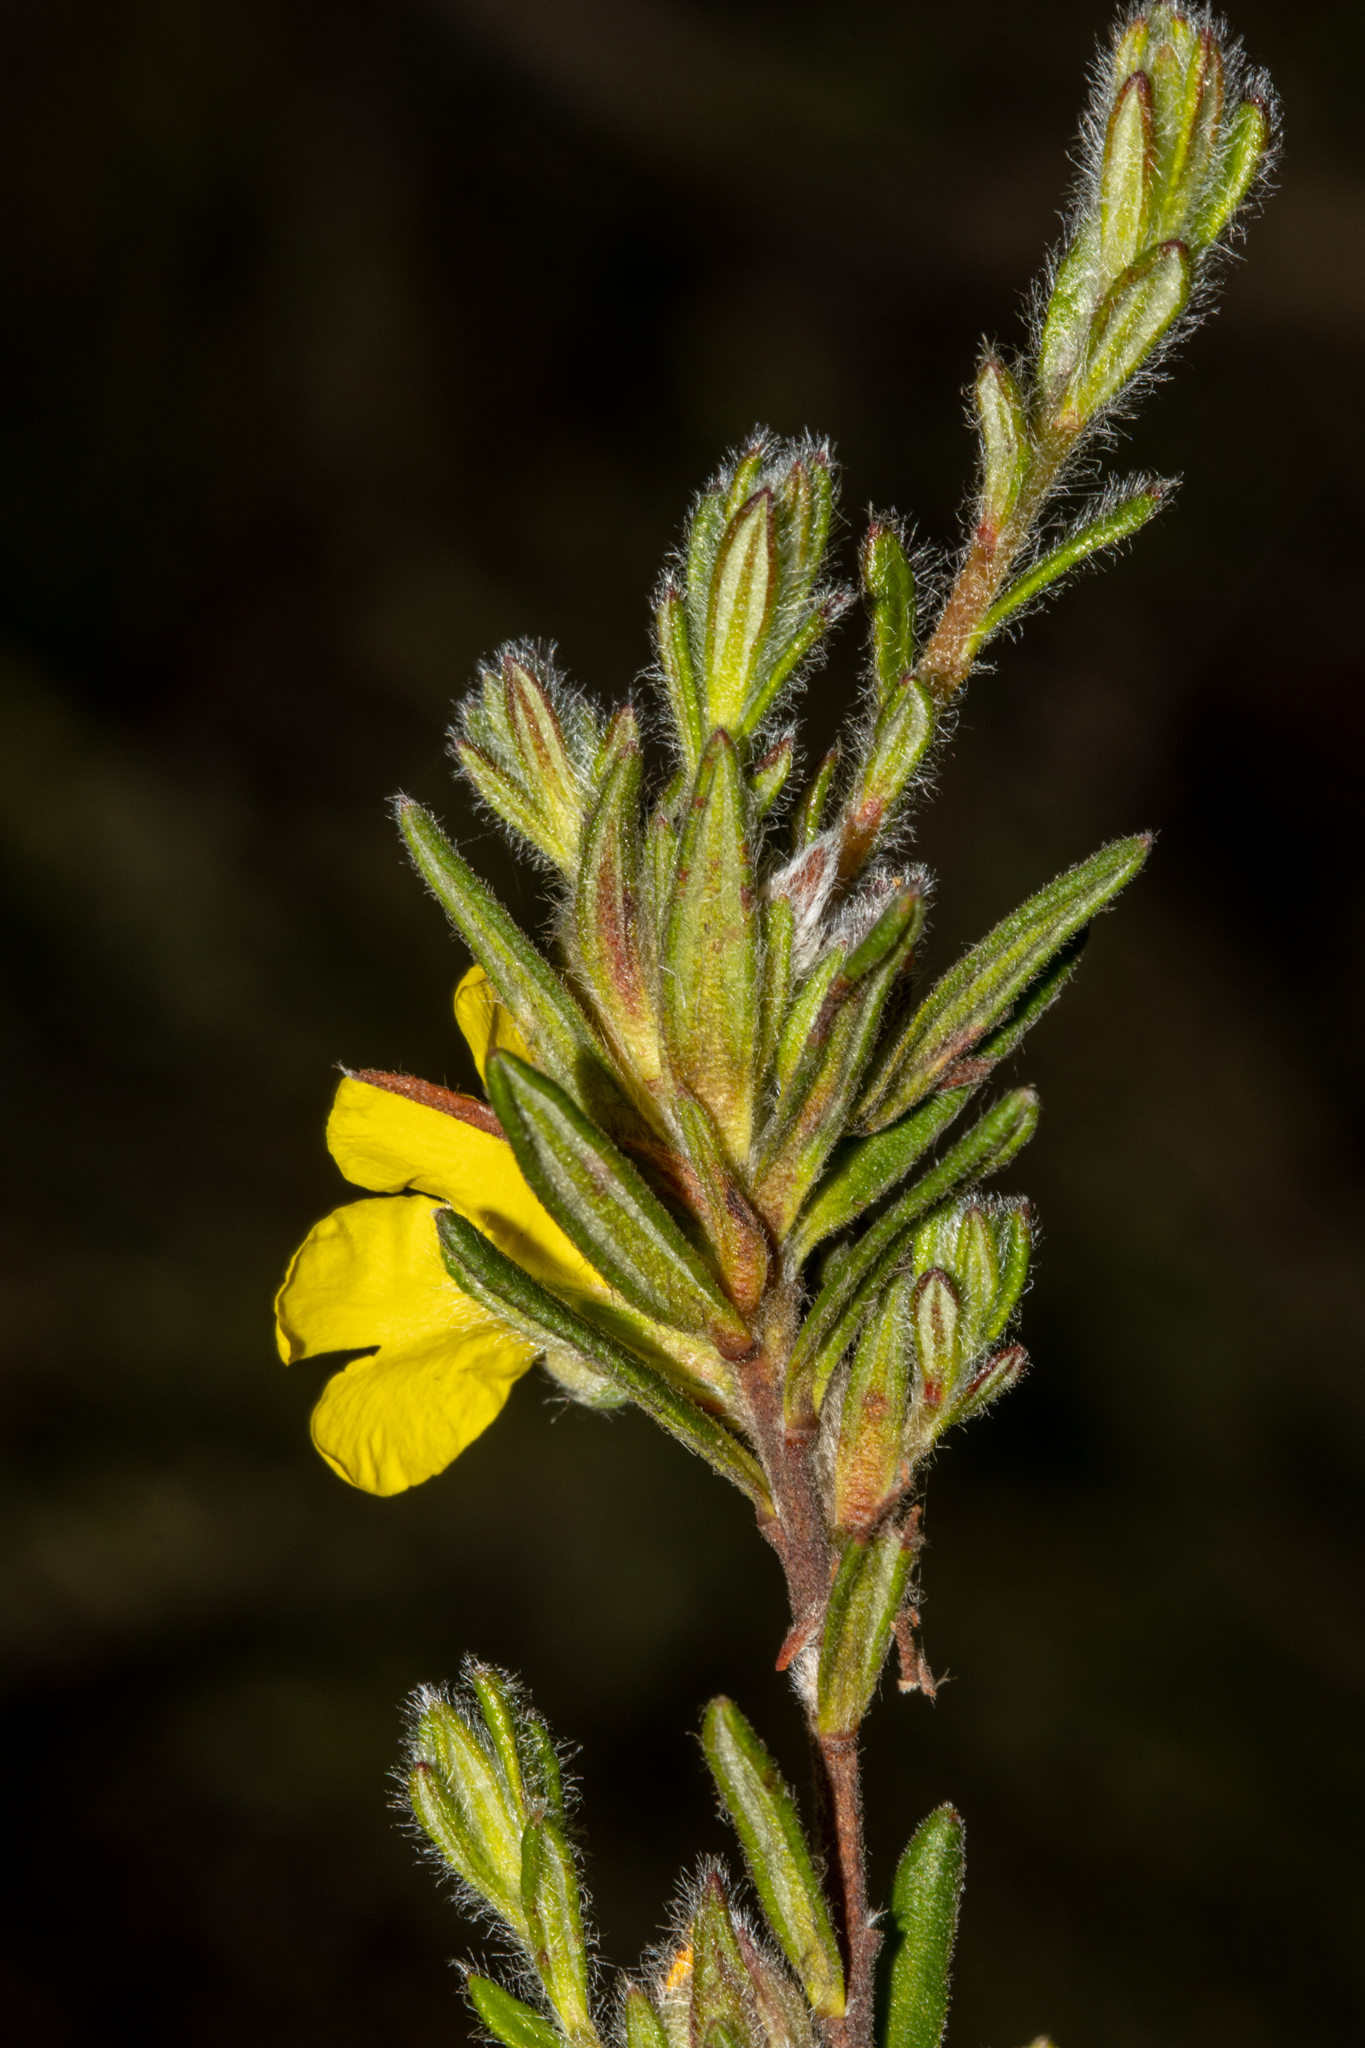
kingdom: Plantae
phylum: Tracheophyta
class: Magnoliopsida
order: Dilleniales
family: Dilleniaceae
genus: Hibbertia
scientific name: Hibbertia villifera
